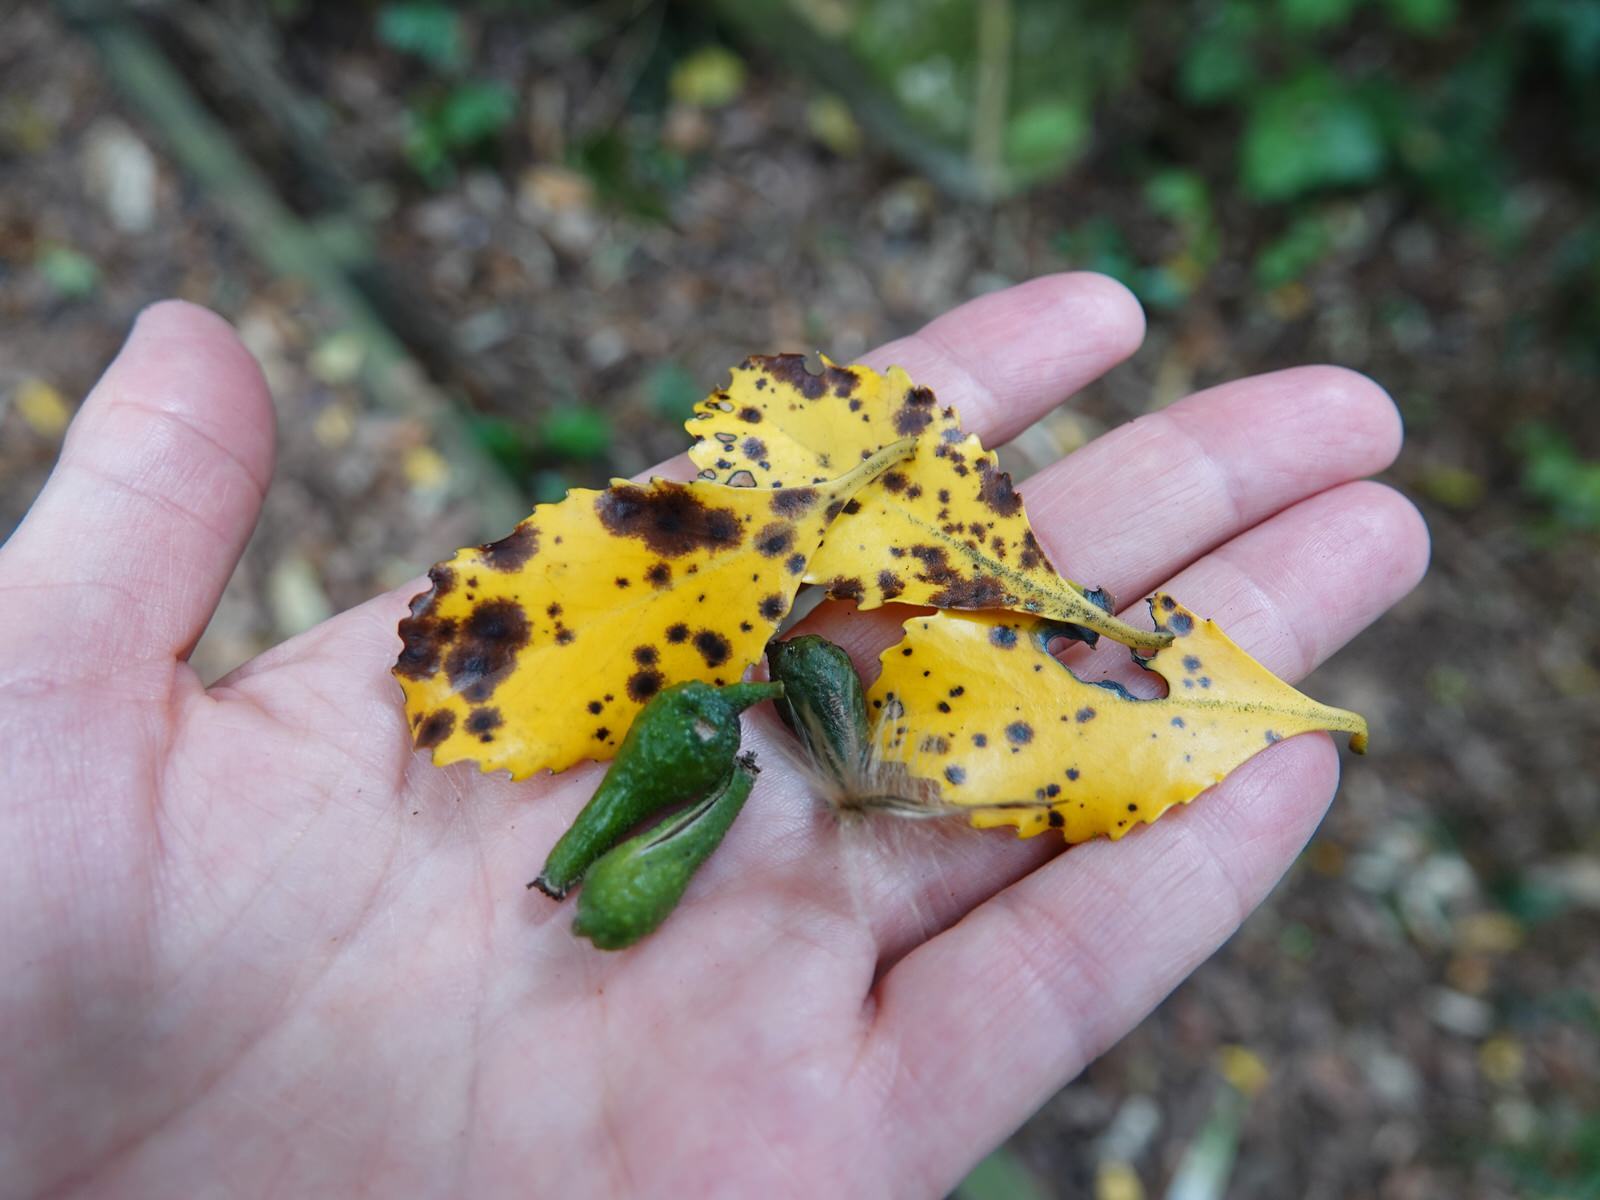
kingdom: Plantae
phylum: Tracheophyta
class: Magnoliopsida
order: Laurales
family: Atherospermataceae
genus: Laurelia
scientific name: Laurelia novae-zelandiae
